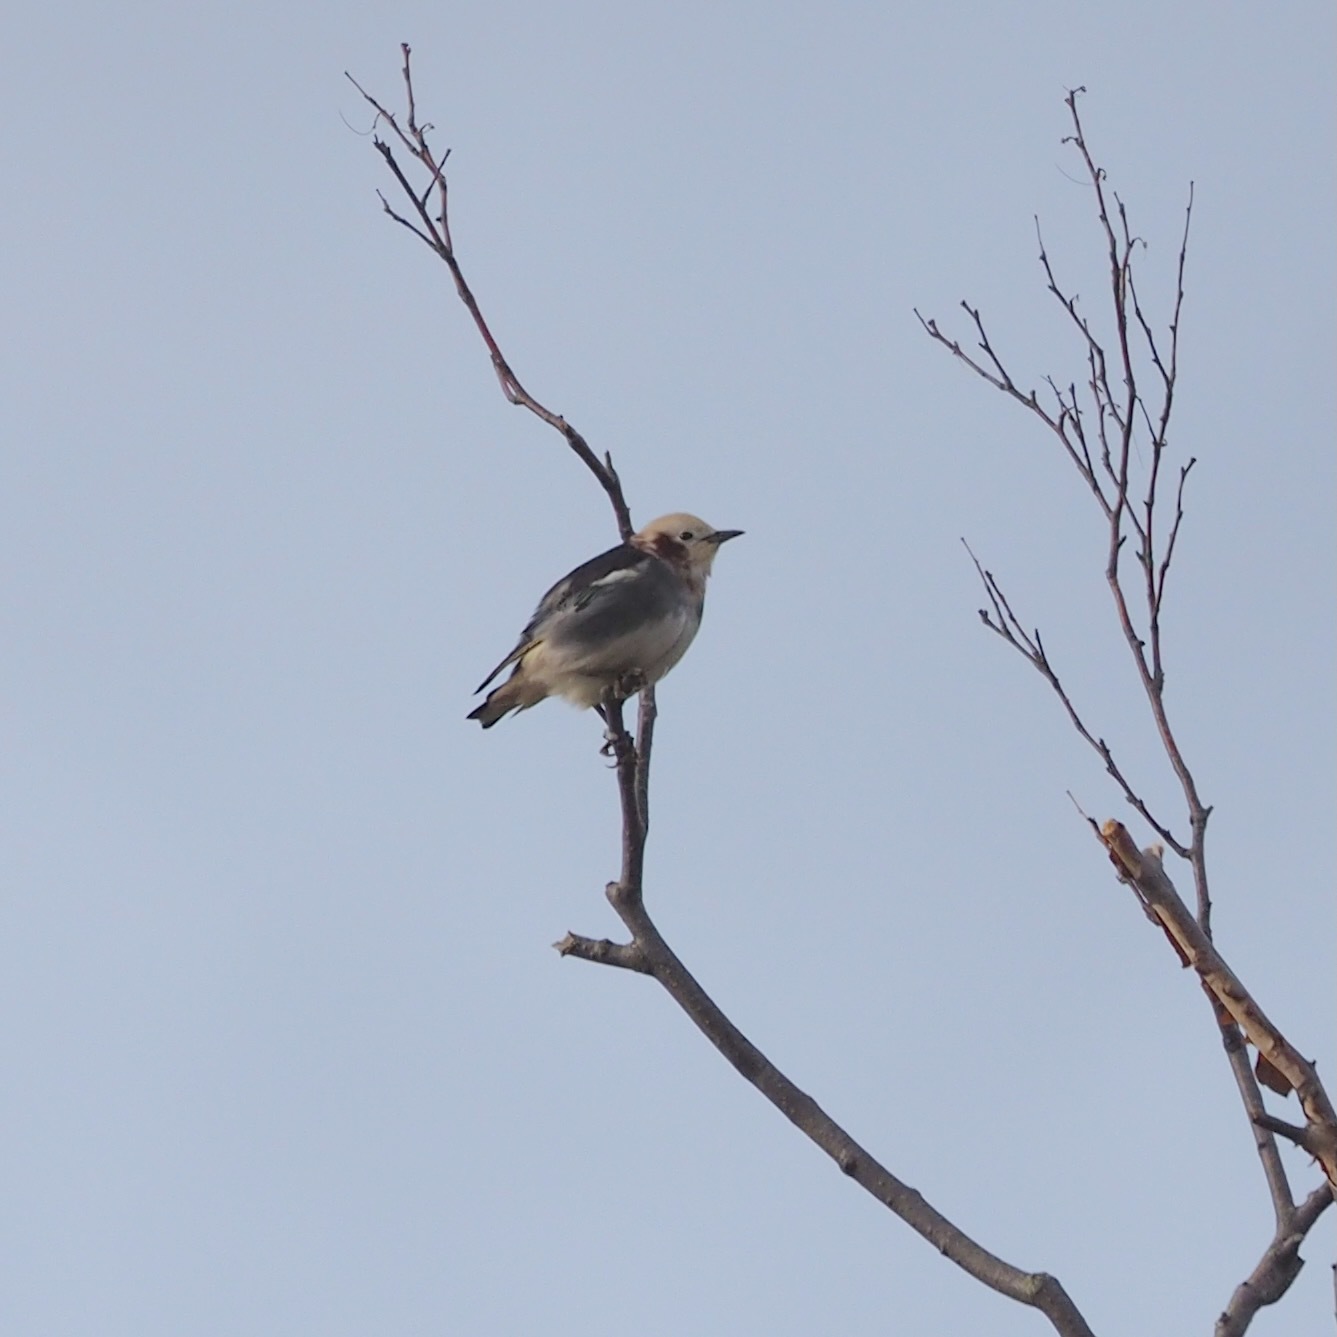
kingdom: Animalia
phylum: Chordata
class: Aves
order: Passeriformes
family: Sturnidae
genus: Agropsar
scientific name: Agropsar philippensis
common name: Chestnut-cheeked starling
